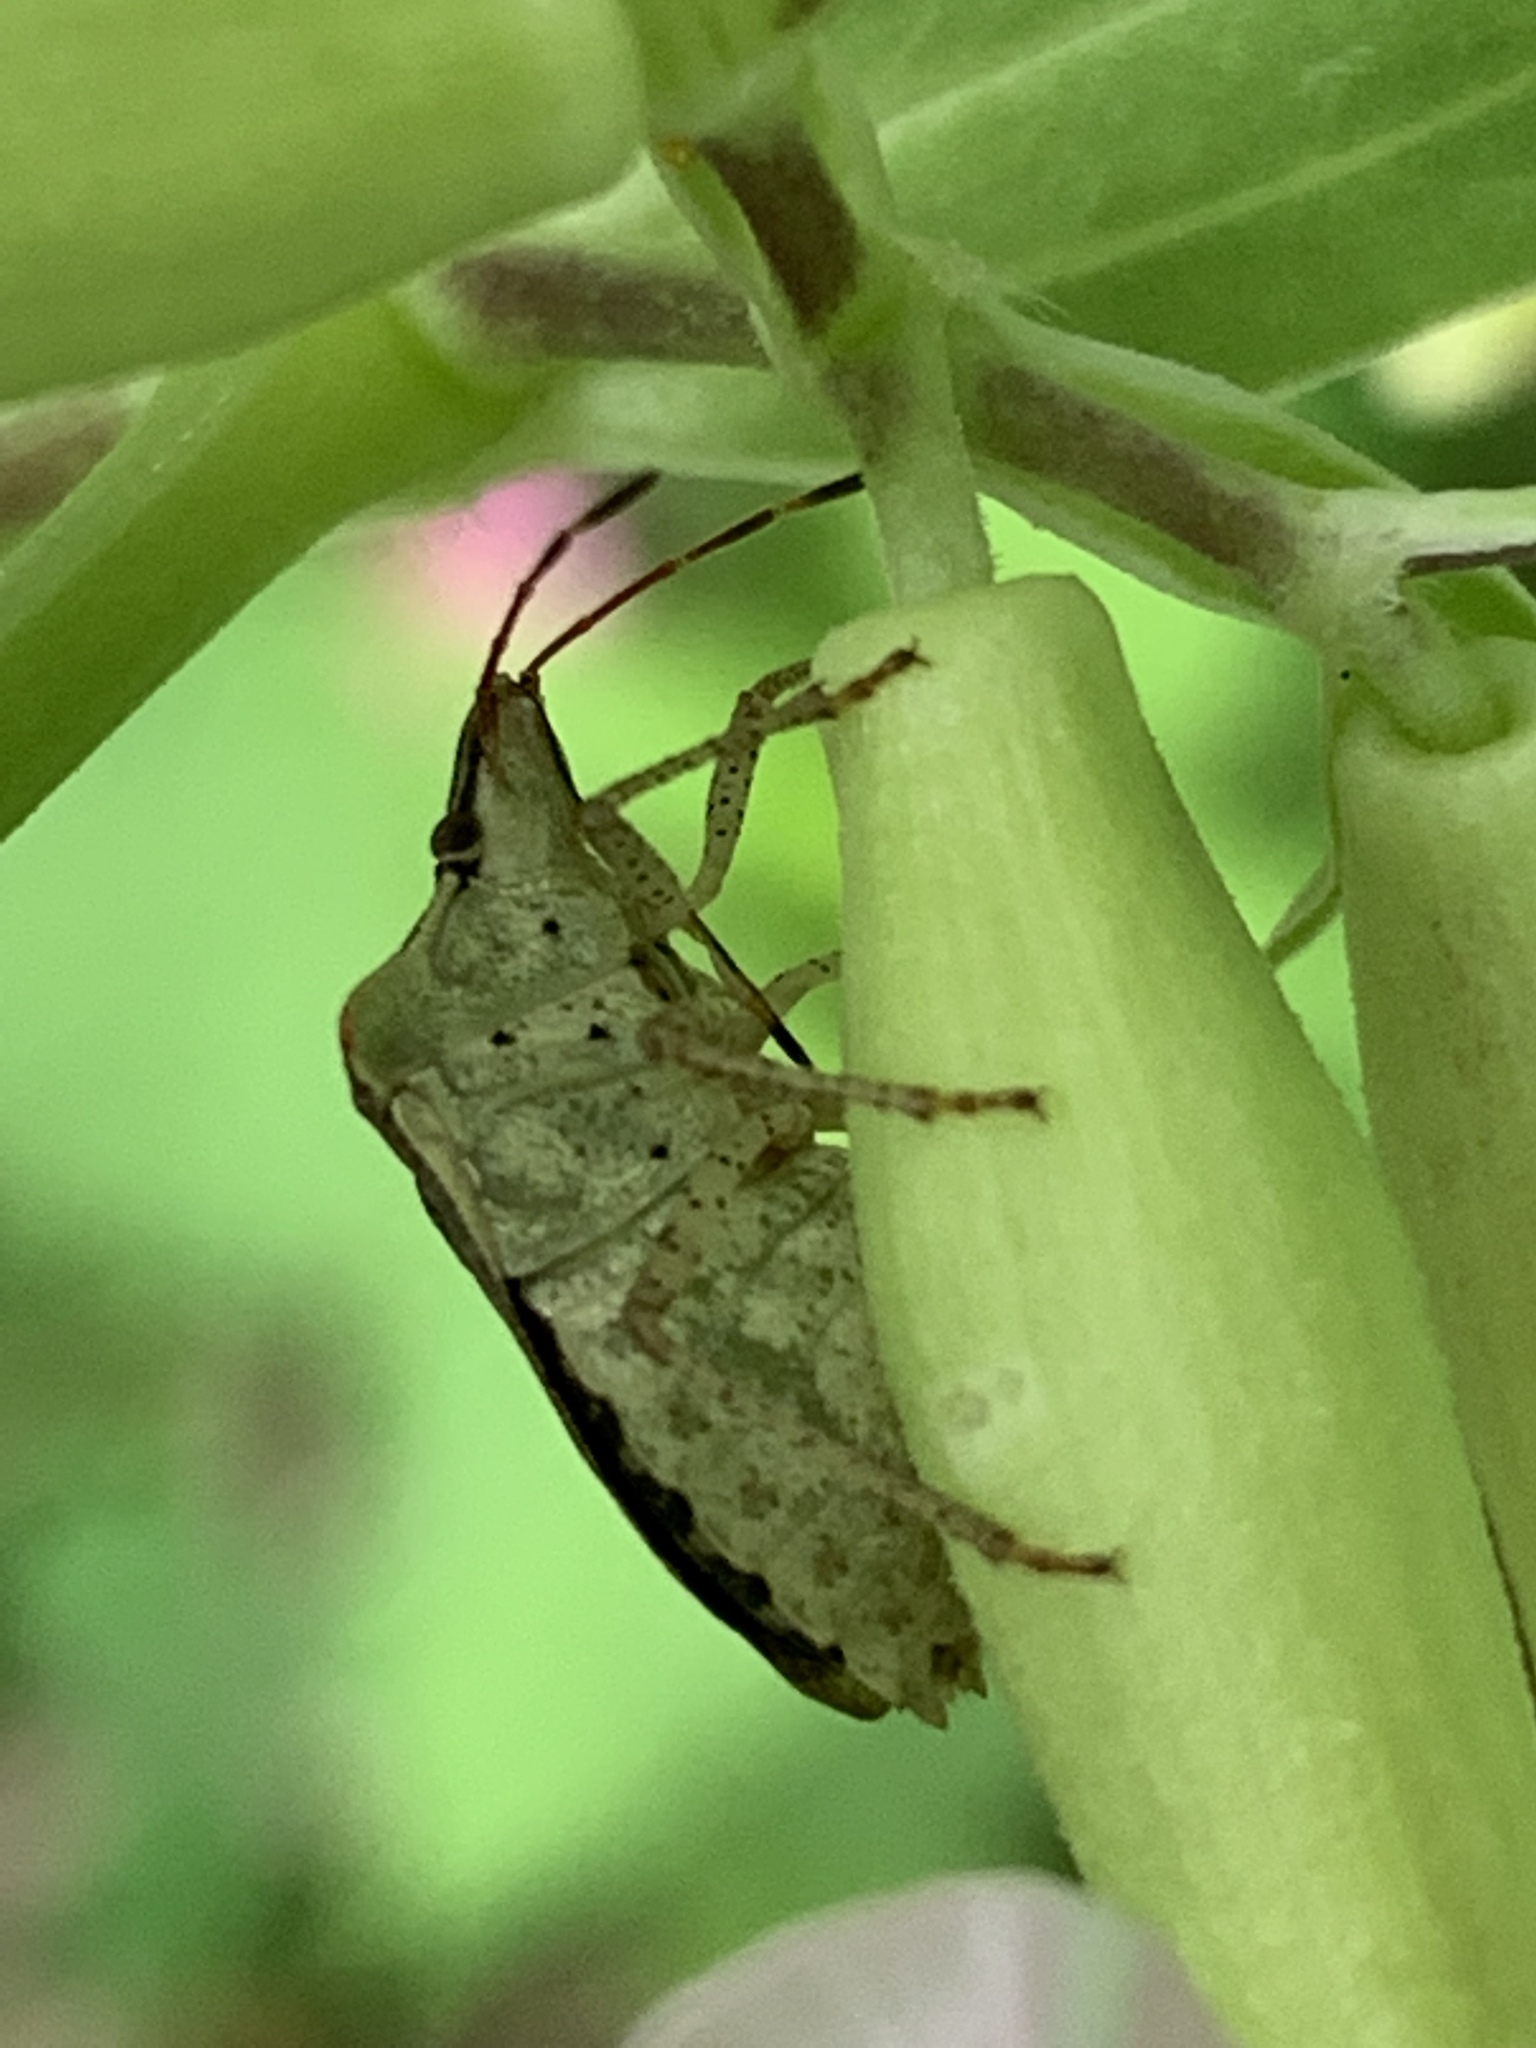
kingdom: Animalia
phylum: Arthropoda
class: Insecta
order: Hemiptera
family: Pentatomidae
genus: Euschistus
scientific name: Euschistus tristigmus
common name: Dusky stink bug
